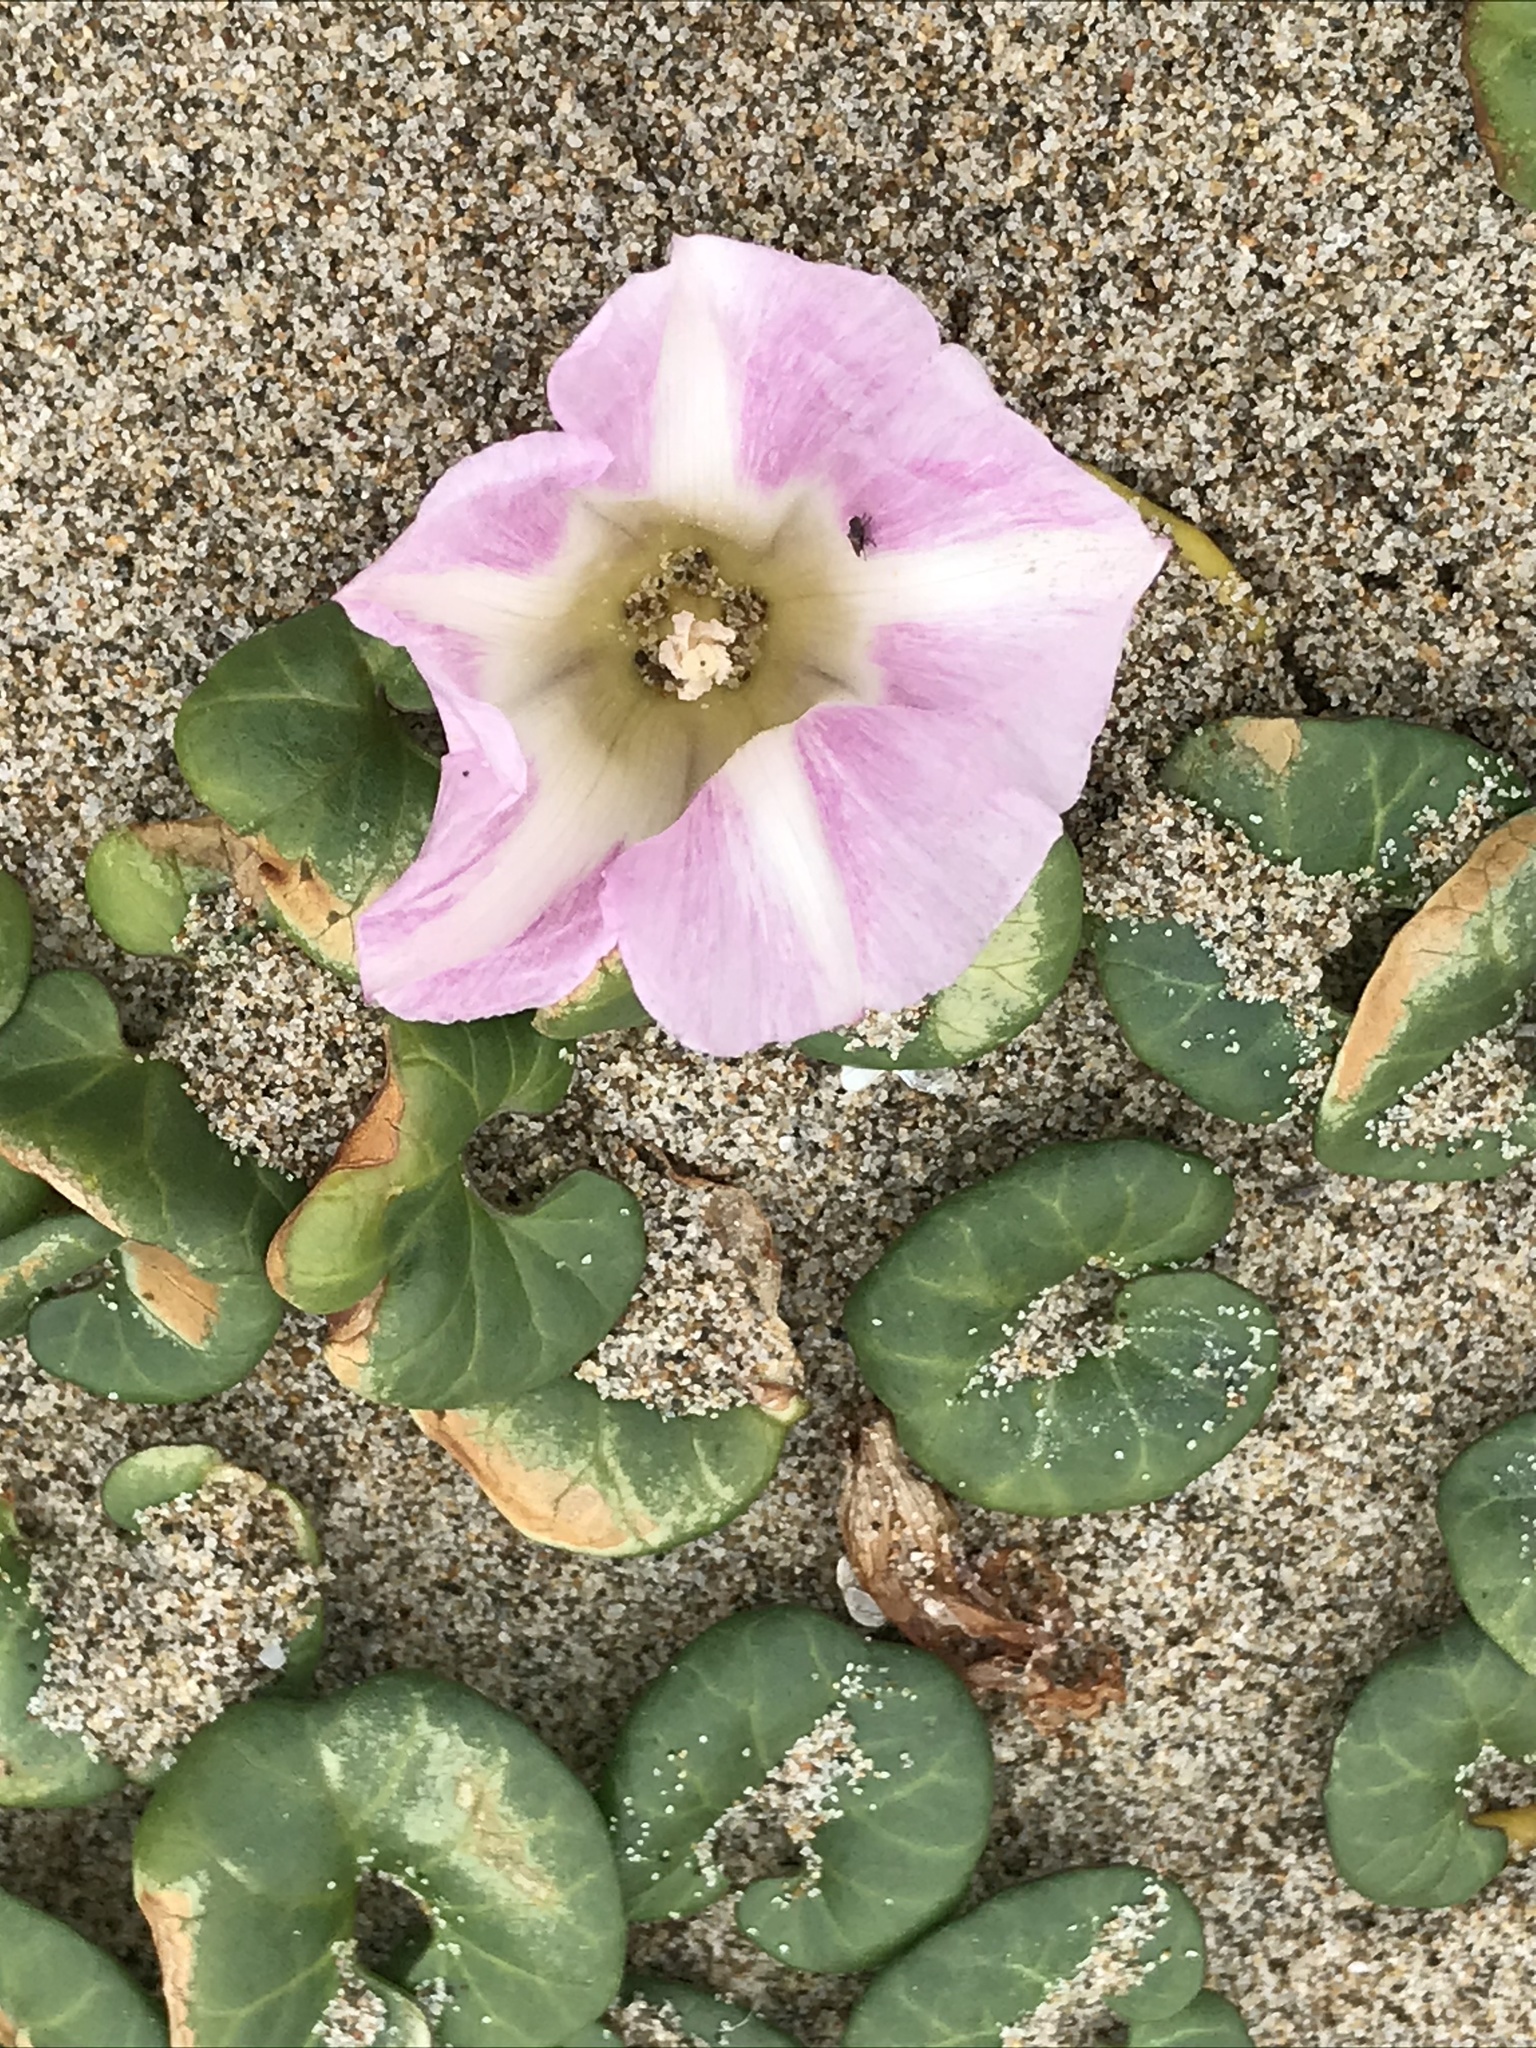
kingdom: Plantae
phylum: Tracheophyta
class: Magnoliopsida
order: Solanales
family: Convolvulaceae
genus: Calystegia
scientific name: Calystegia soldanella
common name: Sea bindweed
